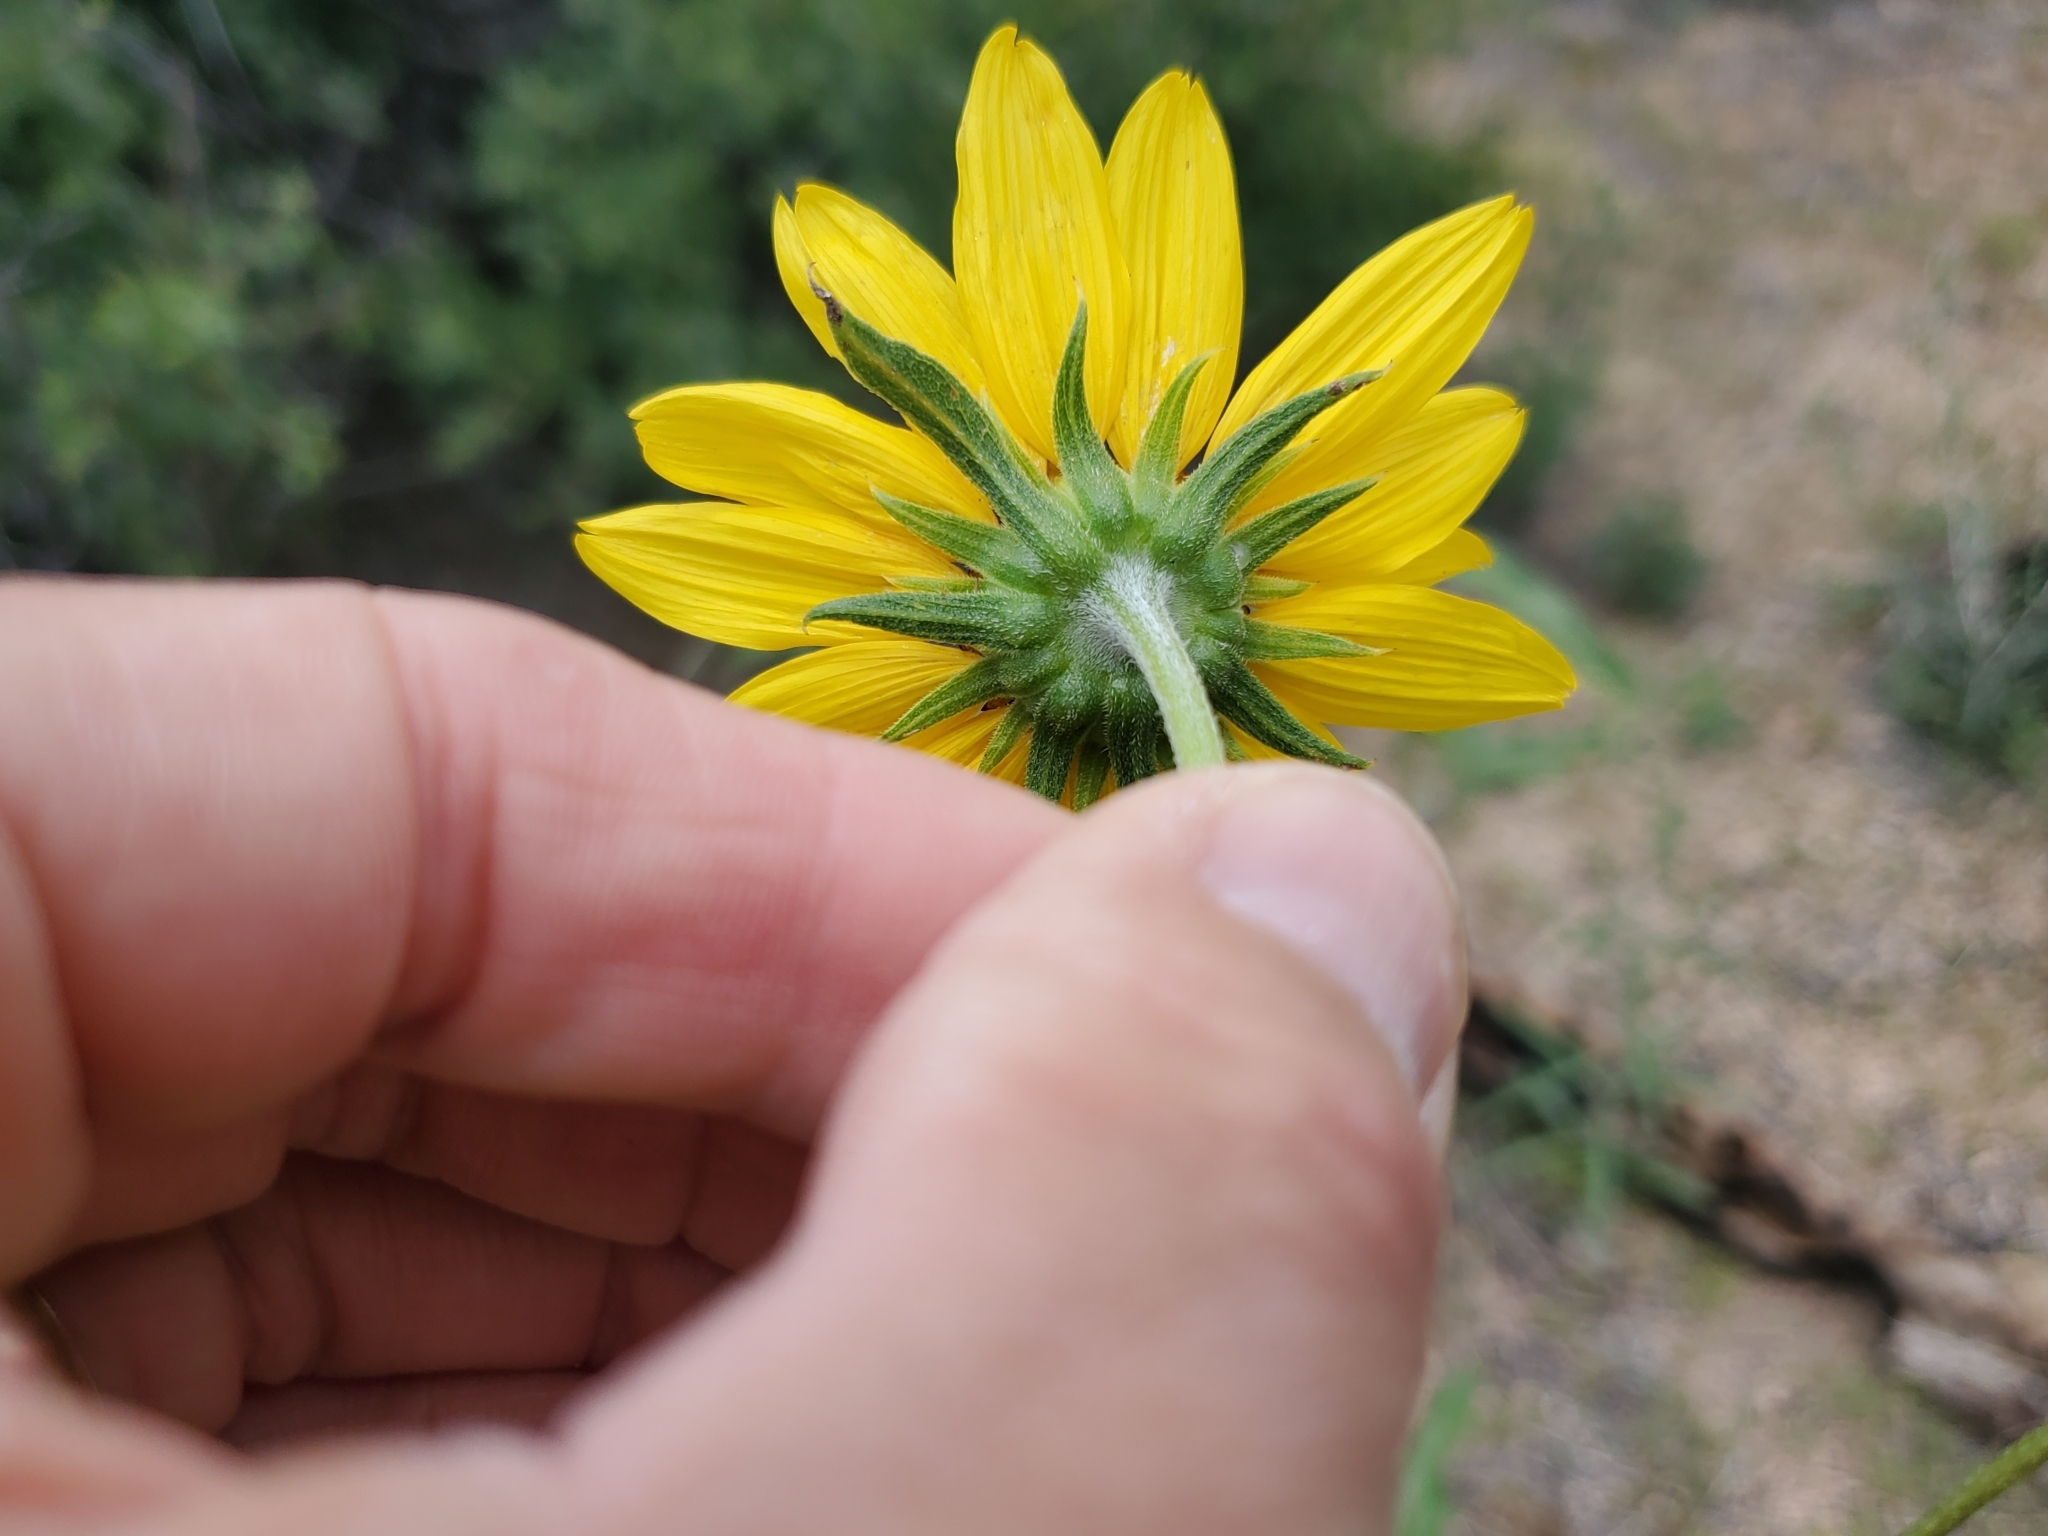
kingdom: Plantae
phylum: Tracheophyta
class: Magnoliopsida
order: Asterales
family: Asteraceae
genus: Helianthus
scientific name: Helianthus petiolaris
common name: Lesser sunflower
